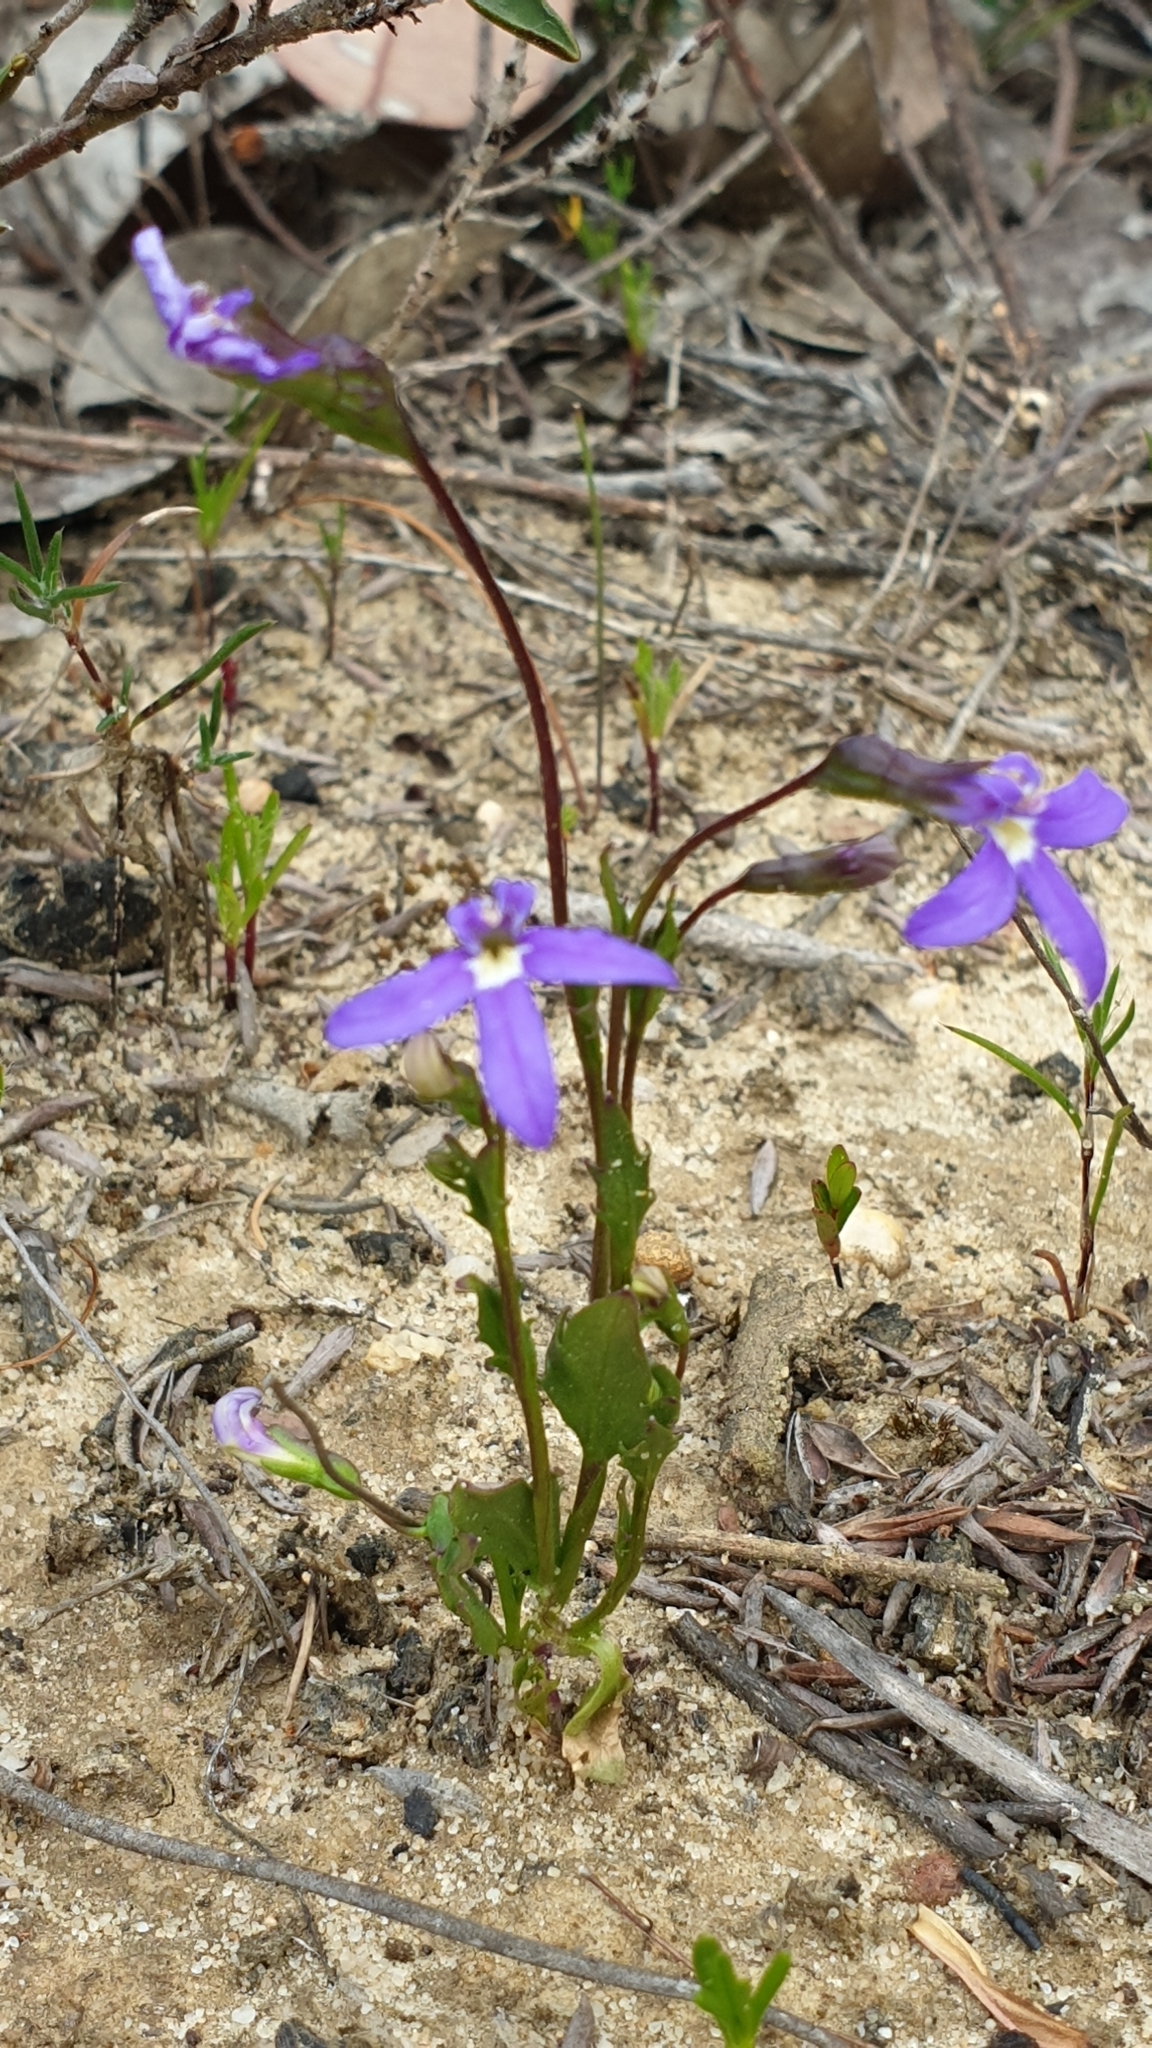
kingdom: Plantae
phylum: Tracheophyta
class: Magnoliopsida
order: Asterales
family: Campanulaceae
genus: Lobelia
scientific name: Lobelia rhombifolia
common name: Tufted lobelia
